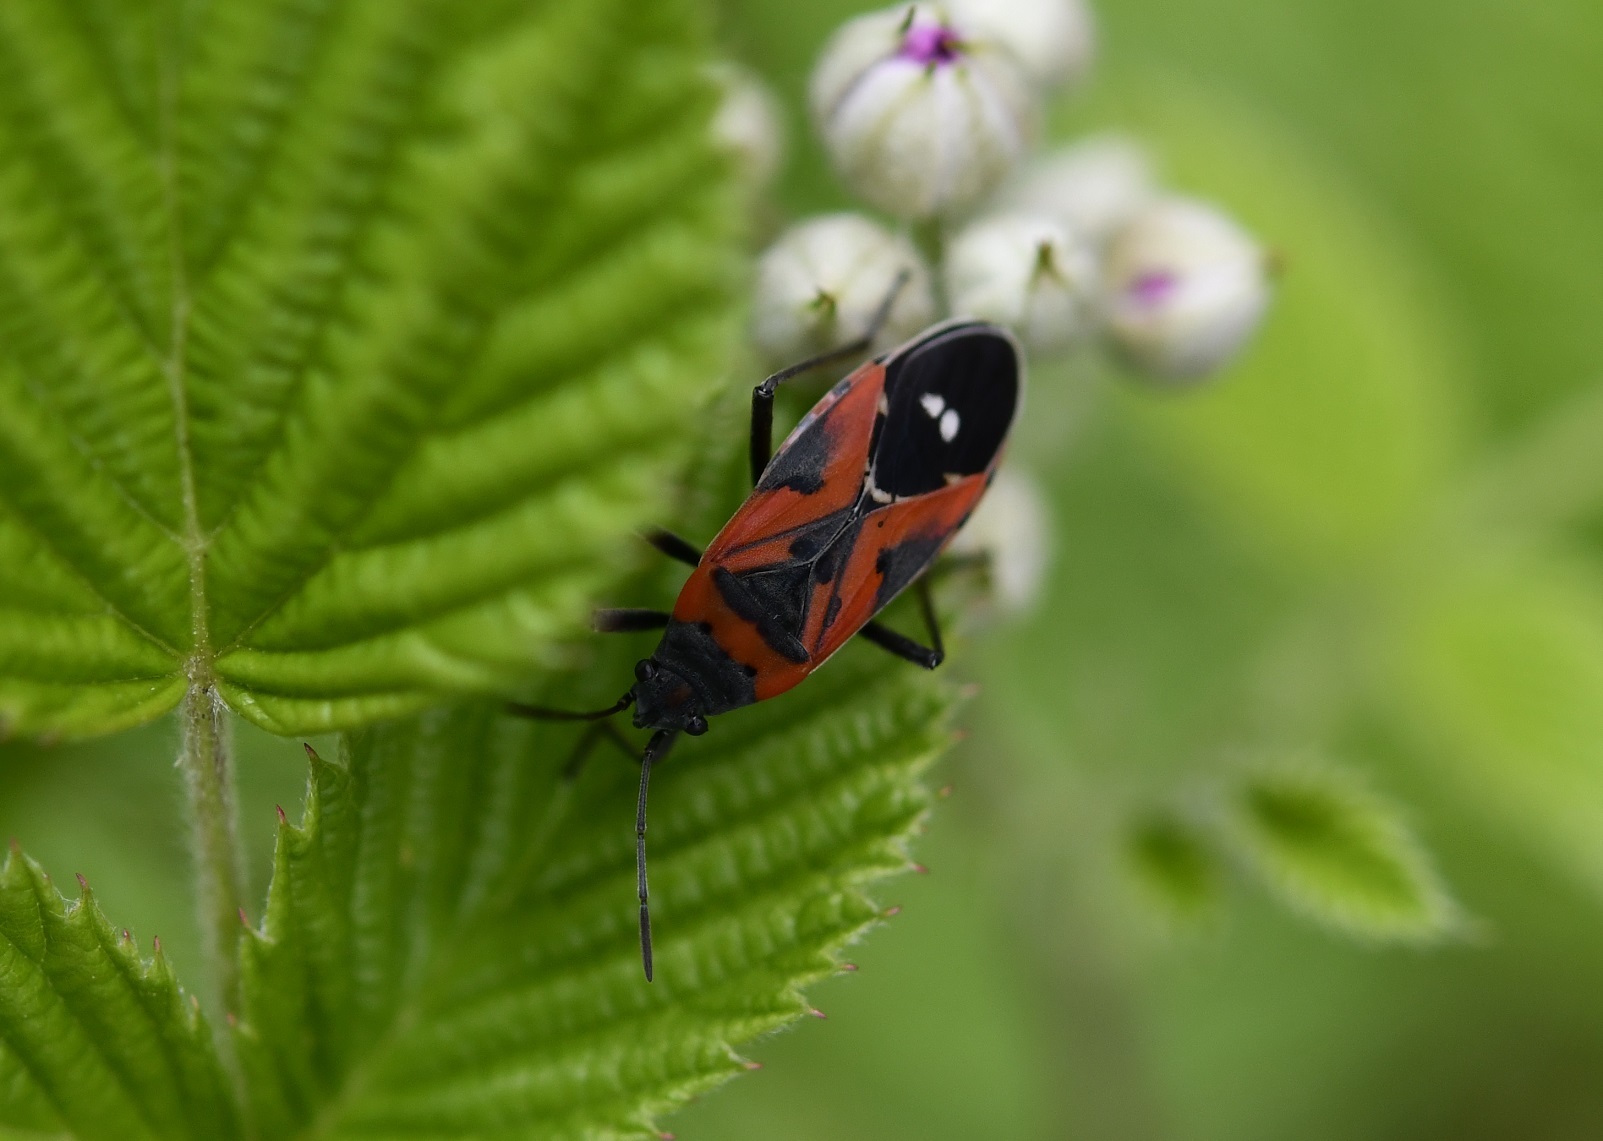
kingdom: Animalia
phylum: Arthropoda
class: Insecta
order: Hemiptera
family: Lygaeidae
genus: Lygaeus
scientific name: Lygaeus reclivatus
